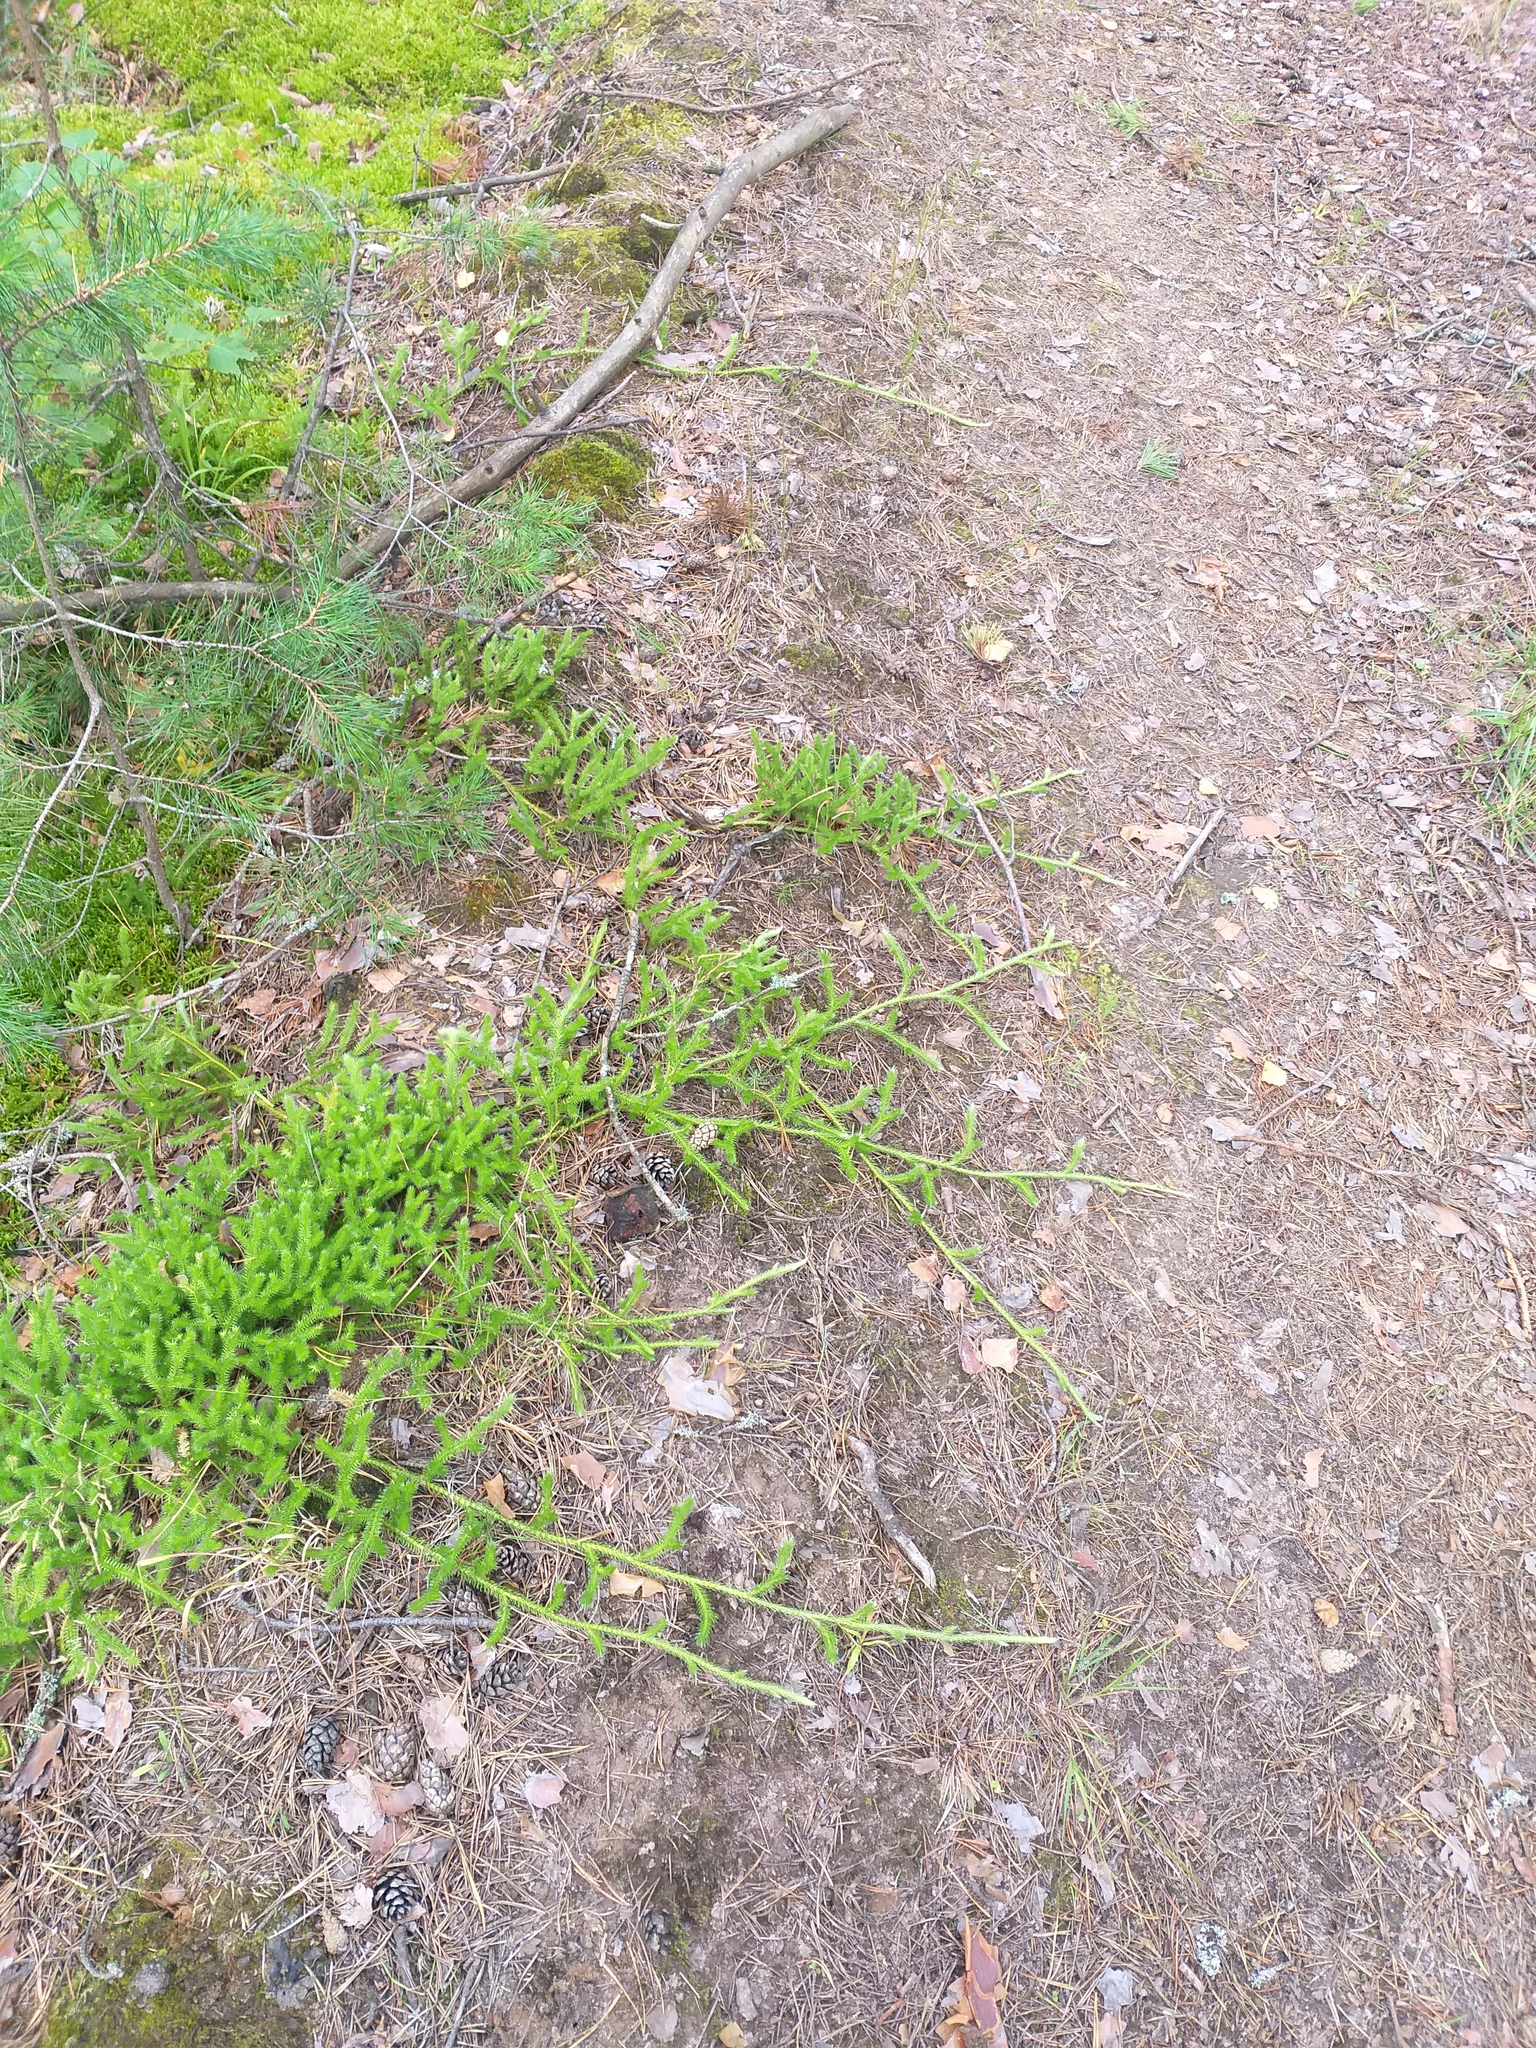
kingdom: Plantae
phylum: Tracheophyta
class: Lycopodiopsida
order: Lycopodiales
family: Lycopodiaceae
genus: Lycopodium
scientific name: Lycopodium clavatum
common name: Stag's-horn clubmoss
